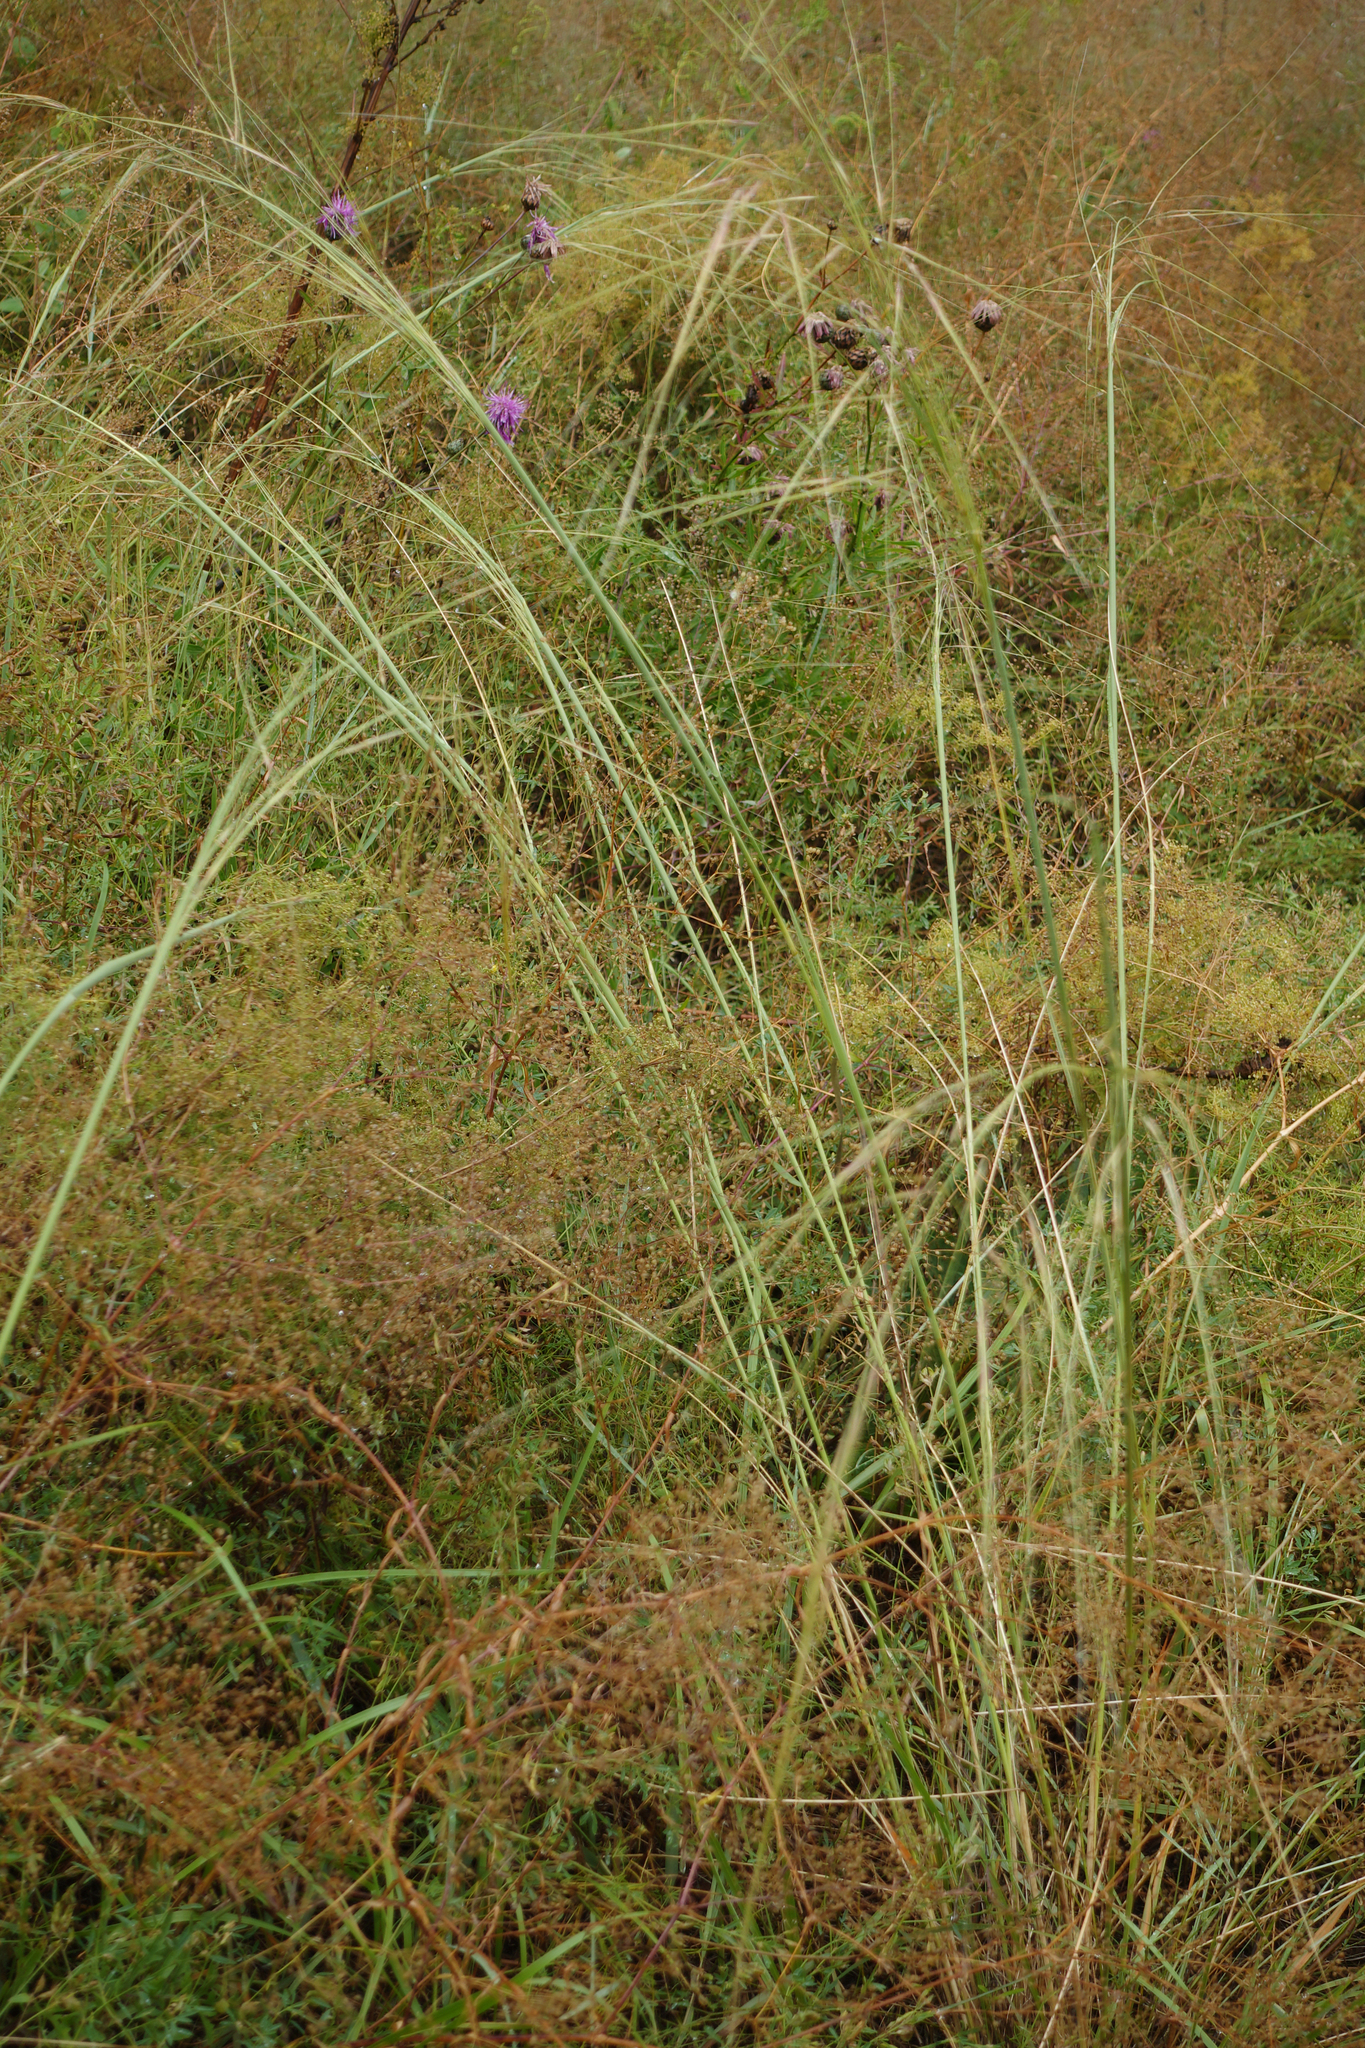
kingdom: Plantae
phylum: Tracheophyta
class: Liliopsida
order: Poales
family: Poaceae
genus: Stipa
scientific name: Stipa capillata
